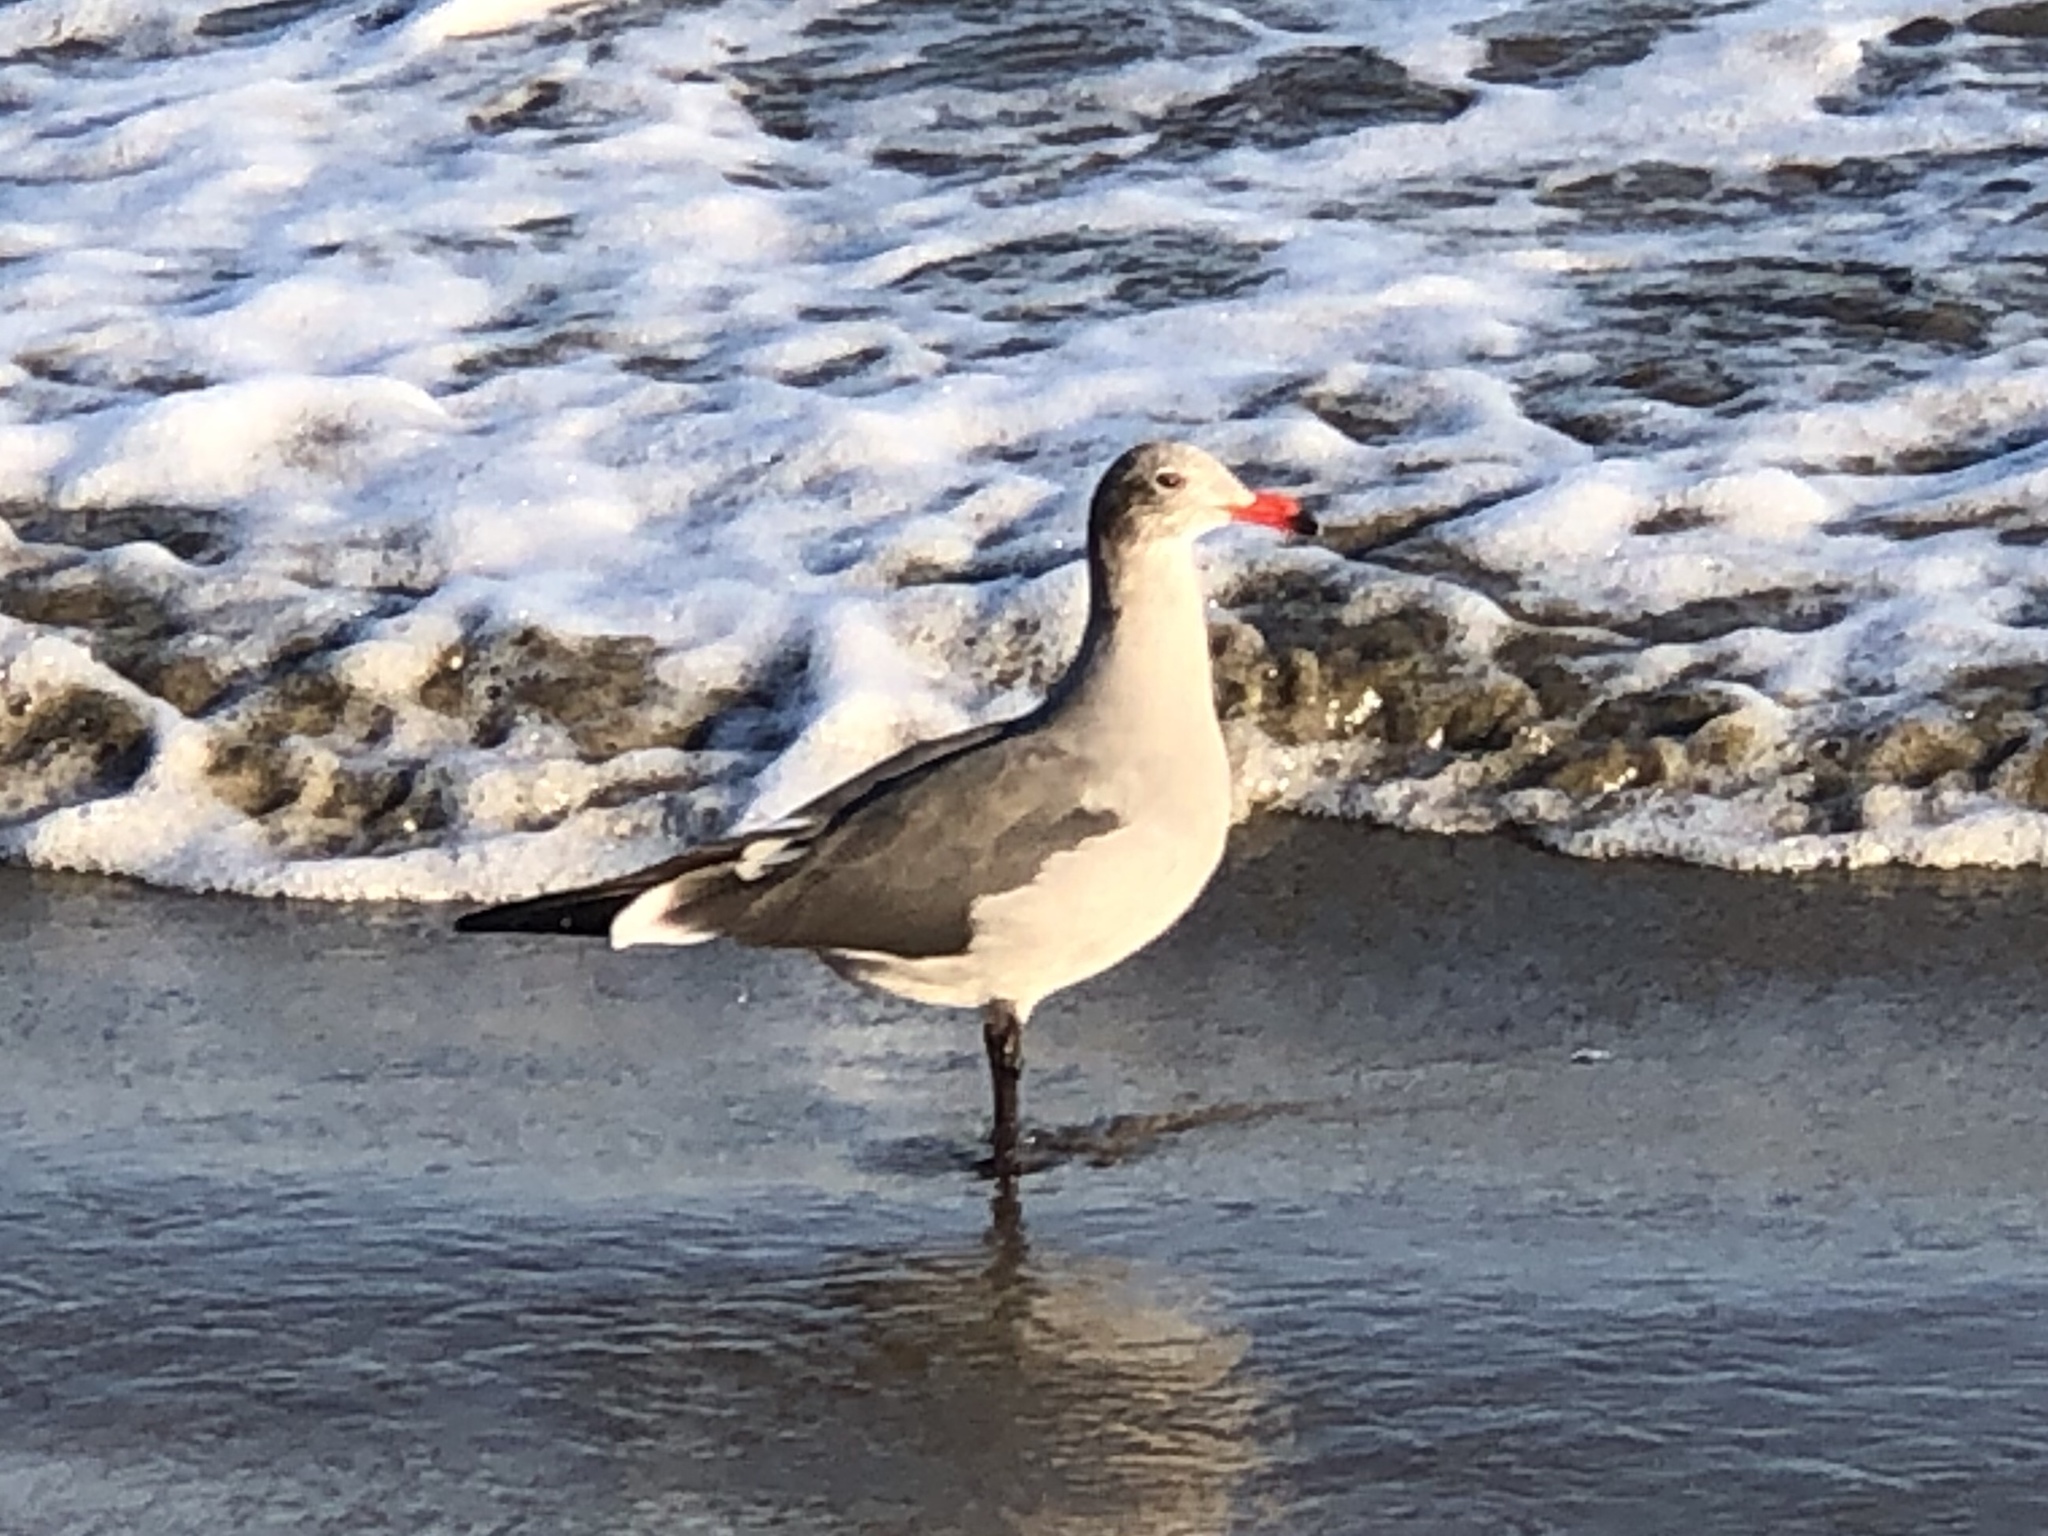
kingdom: Animalia
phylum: Chordata
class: Aves
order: Charadriiformes
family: Laridae
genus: Larus
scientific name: Larus heermanni
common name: Heermann's gull
